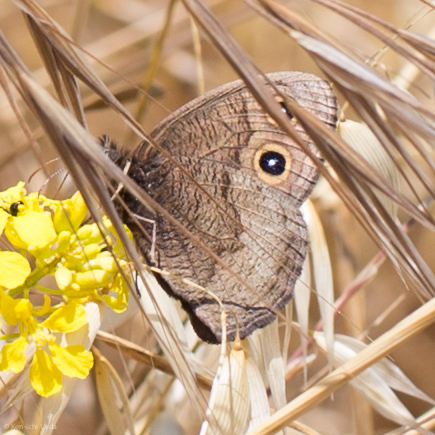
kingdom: Animalia
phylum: Arthropoda
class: Insecta
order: Lepidoptera
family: Nymphalidae
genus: Cercyonis
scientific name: Cercyonis pegala
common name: Common wood-nymph
